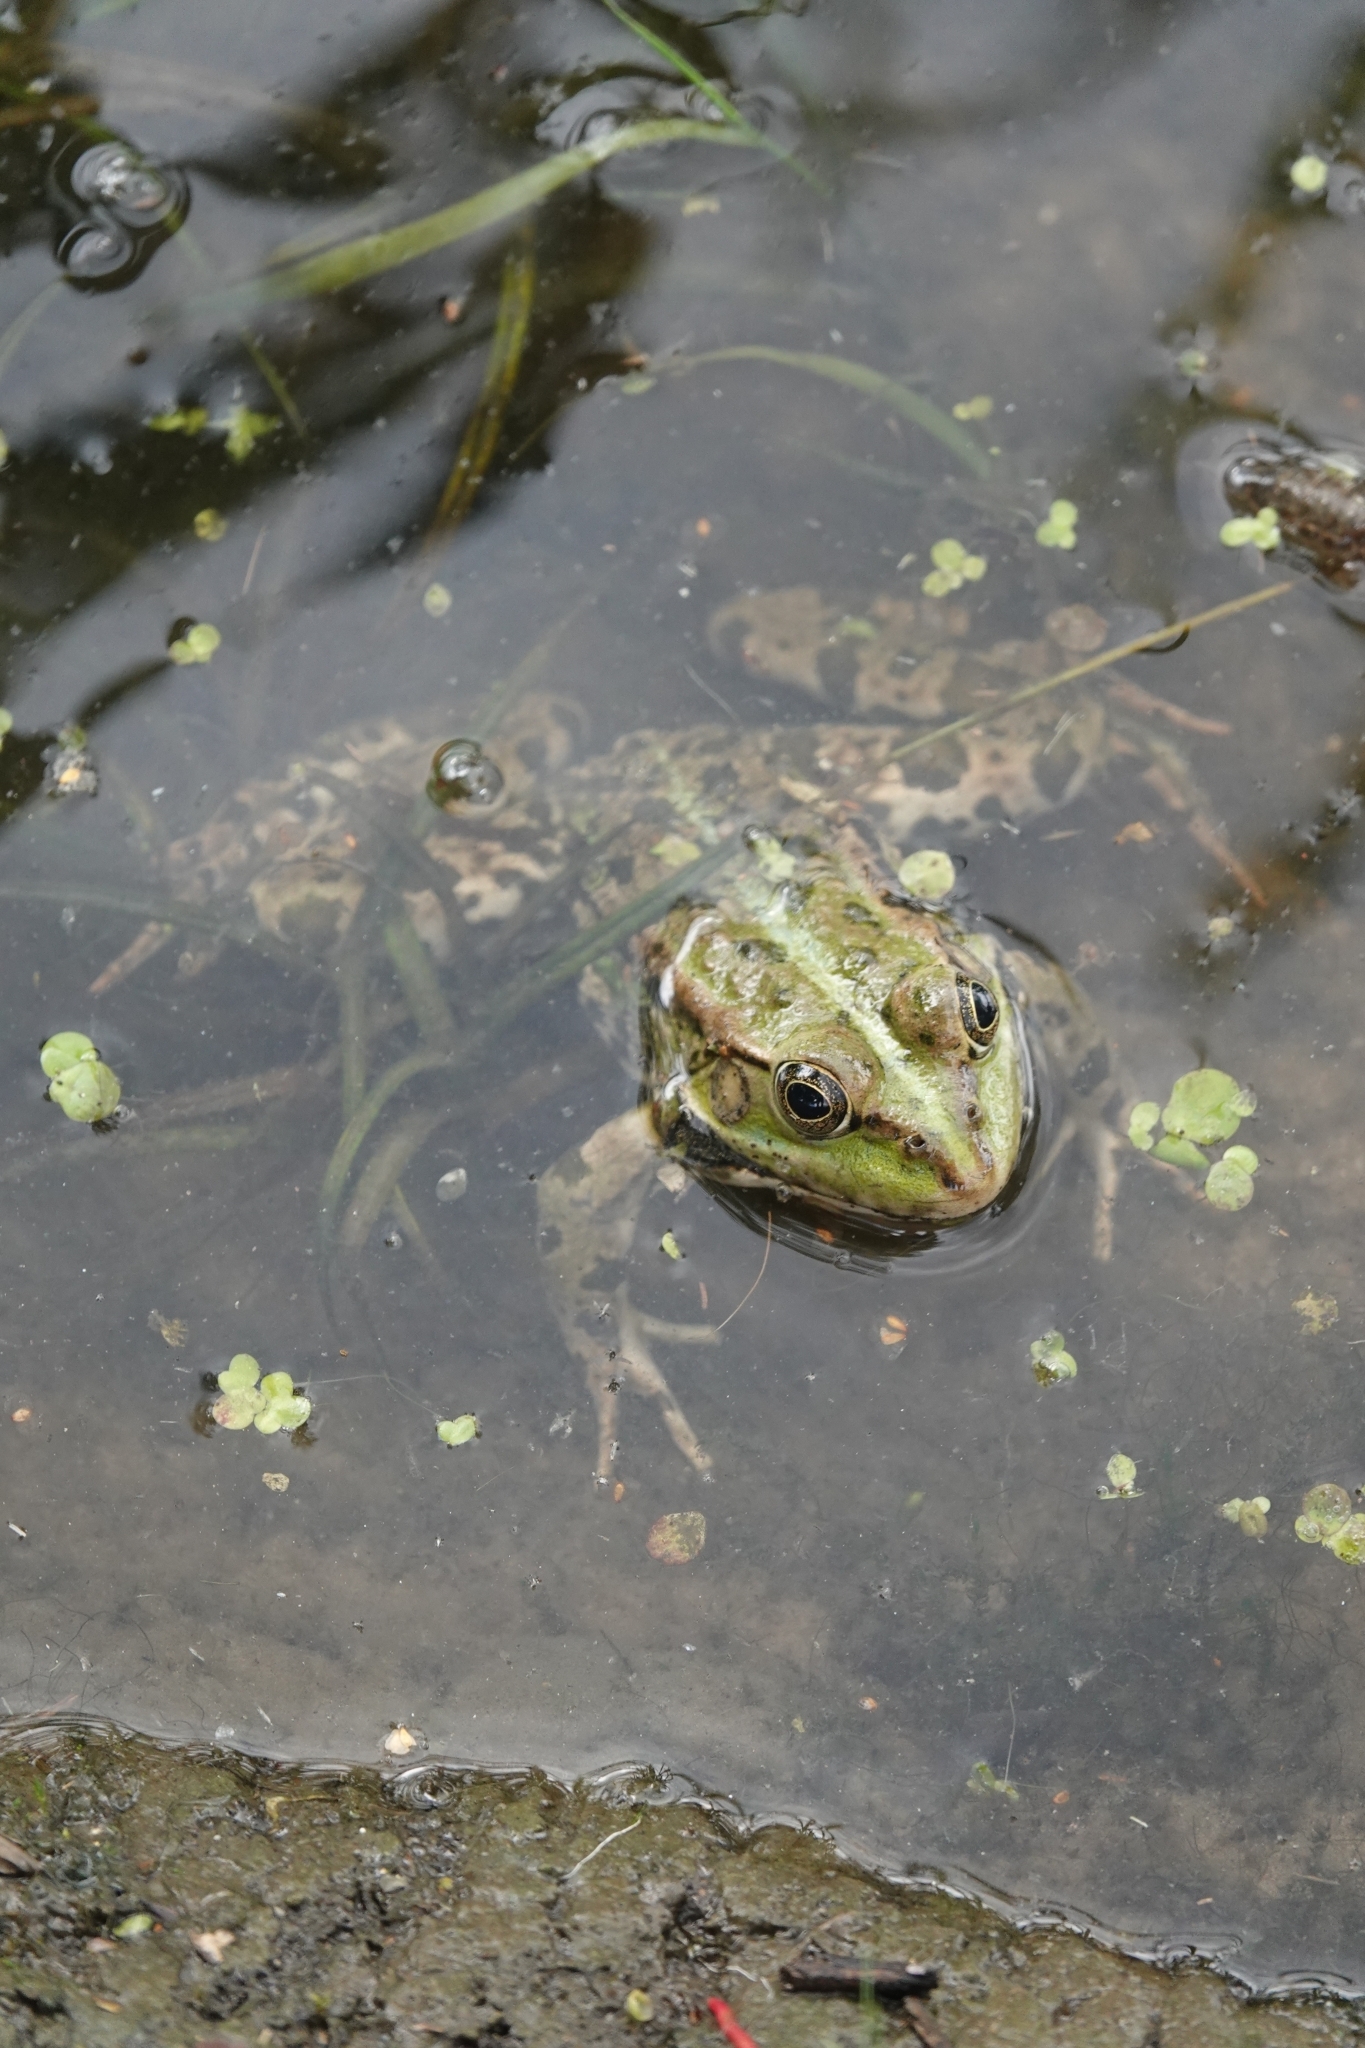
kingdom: Animalia
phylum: Chordata
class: Amphibia
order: Anura
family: Ranidae
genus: Pelophylax
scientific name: Pelophylax ridibundus
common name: Marsh frog
